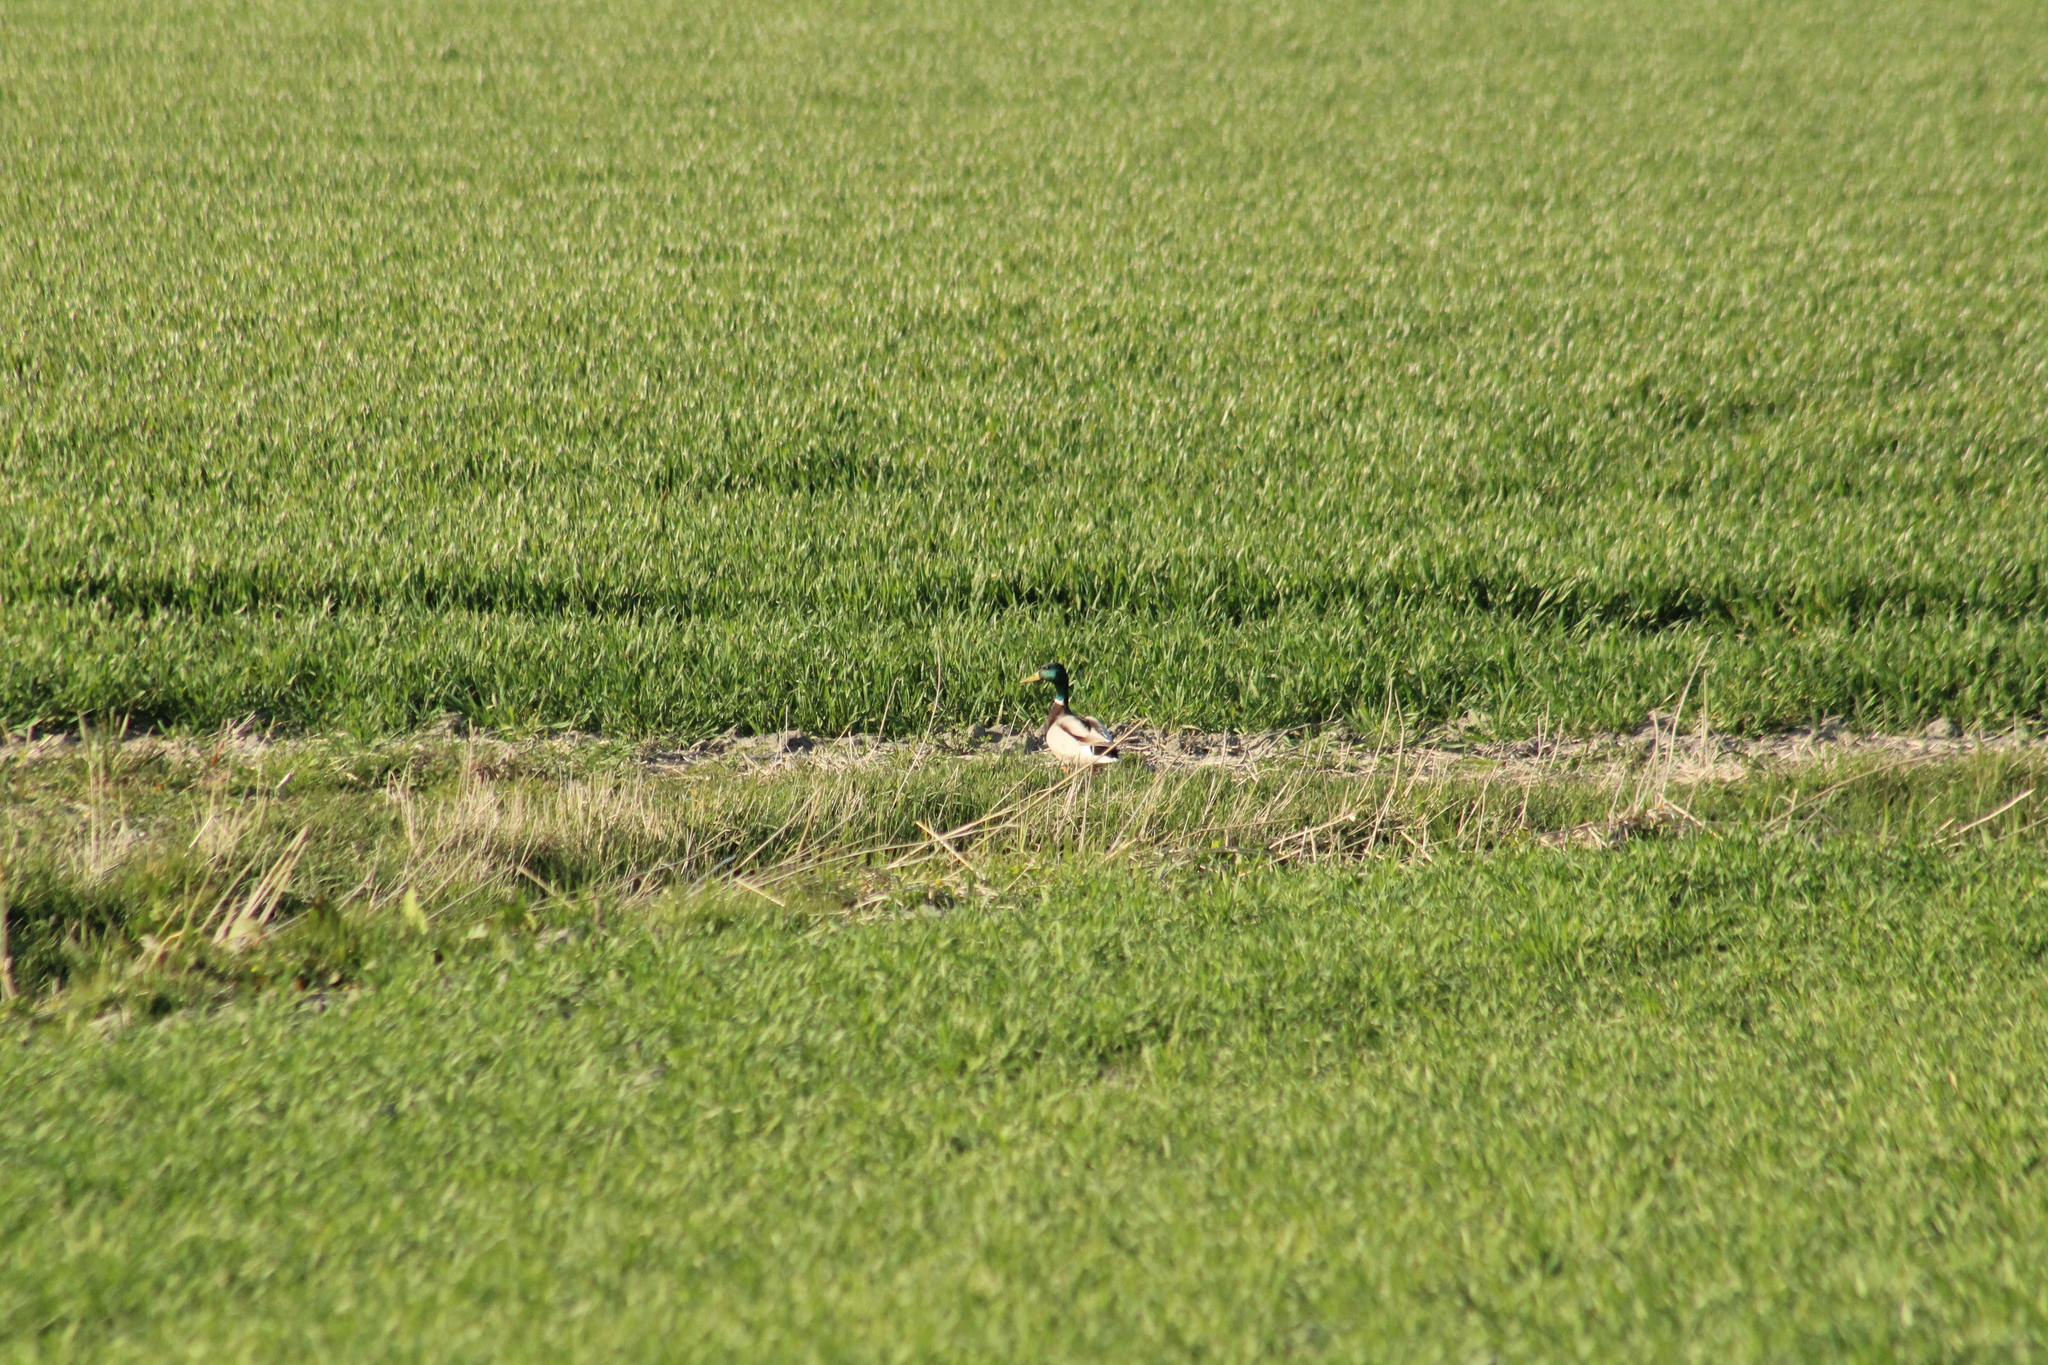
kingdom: Animalia
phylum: Chordata
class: Aves
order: Anseriformes
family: Anatidae
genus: Anas
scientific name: Anas platyrhynchos
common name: Mallard
